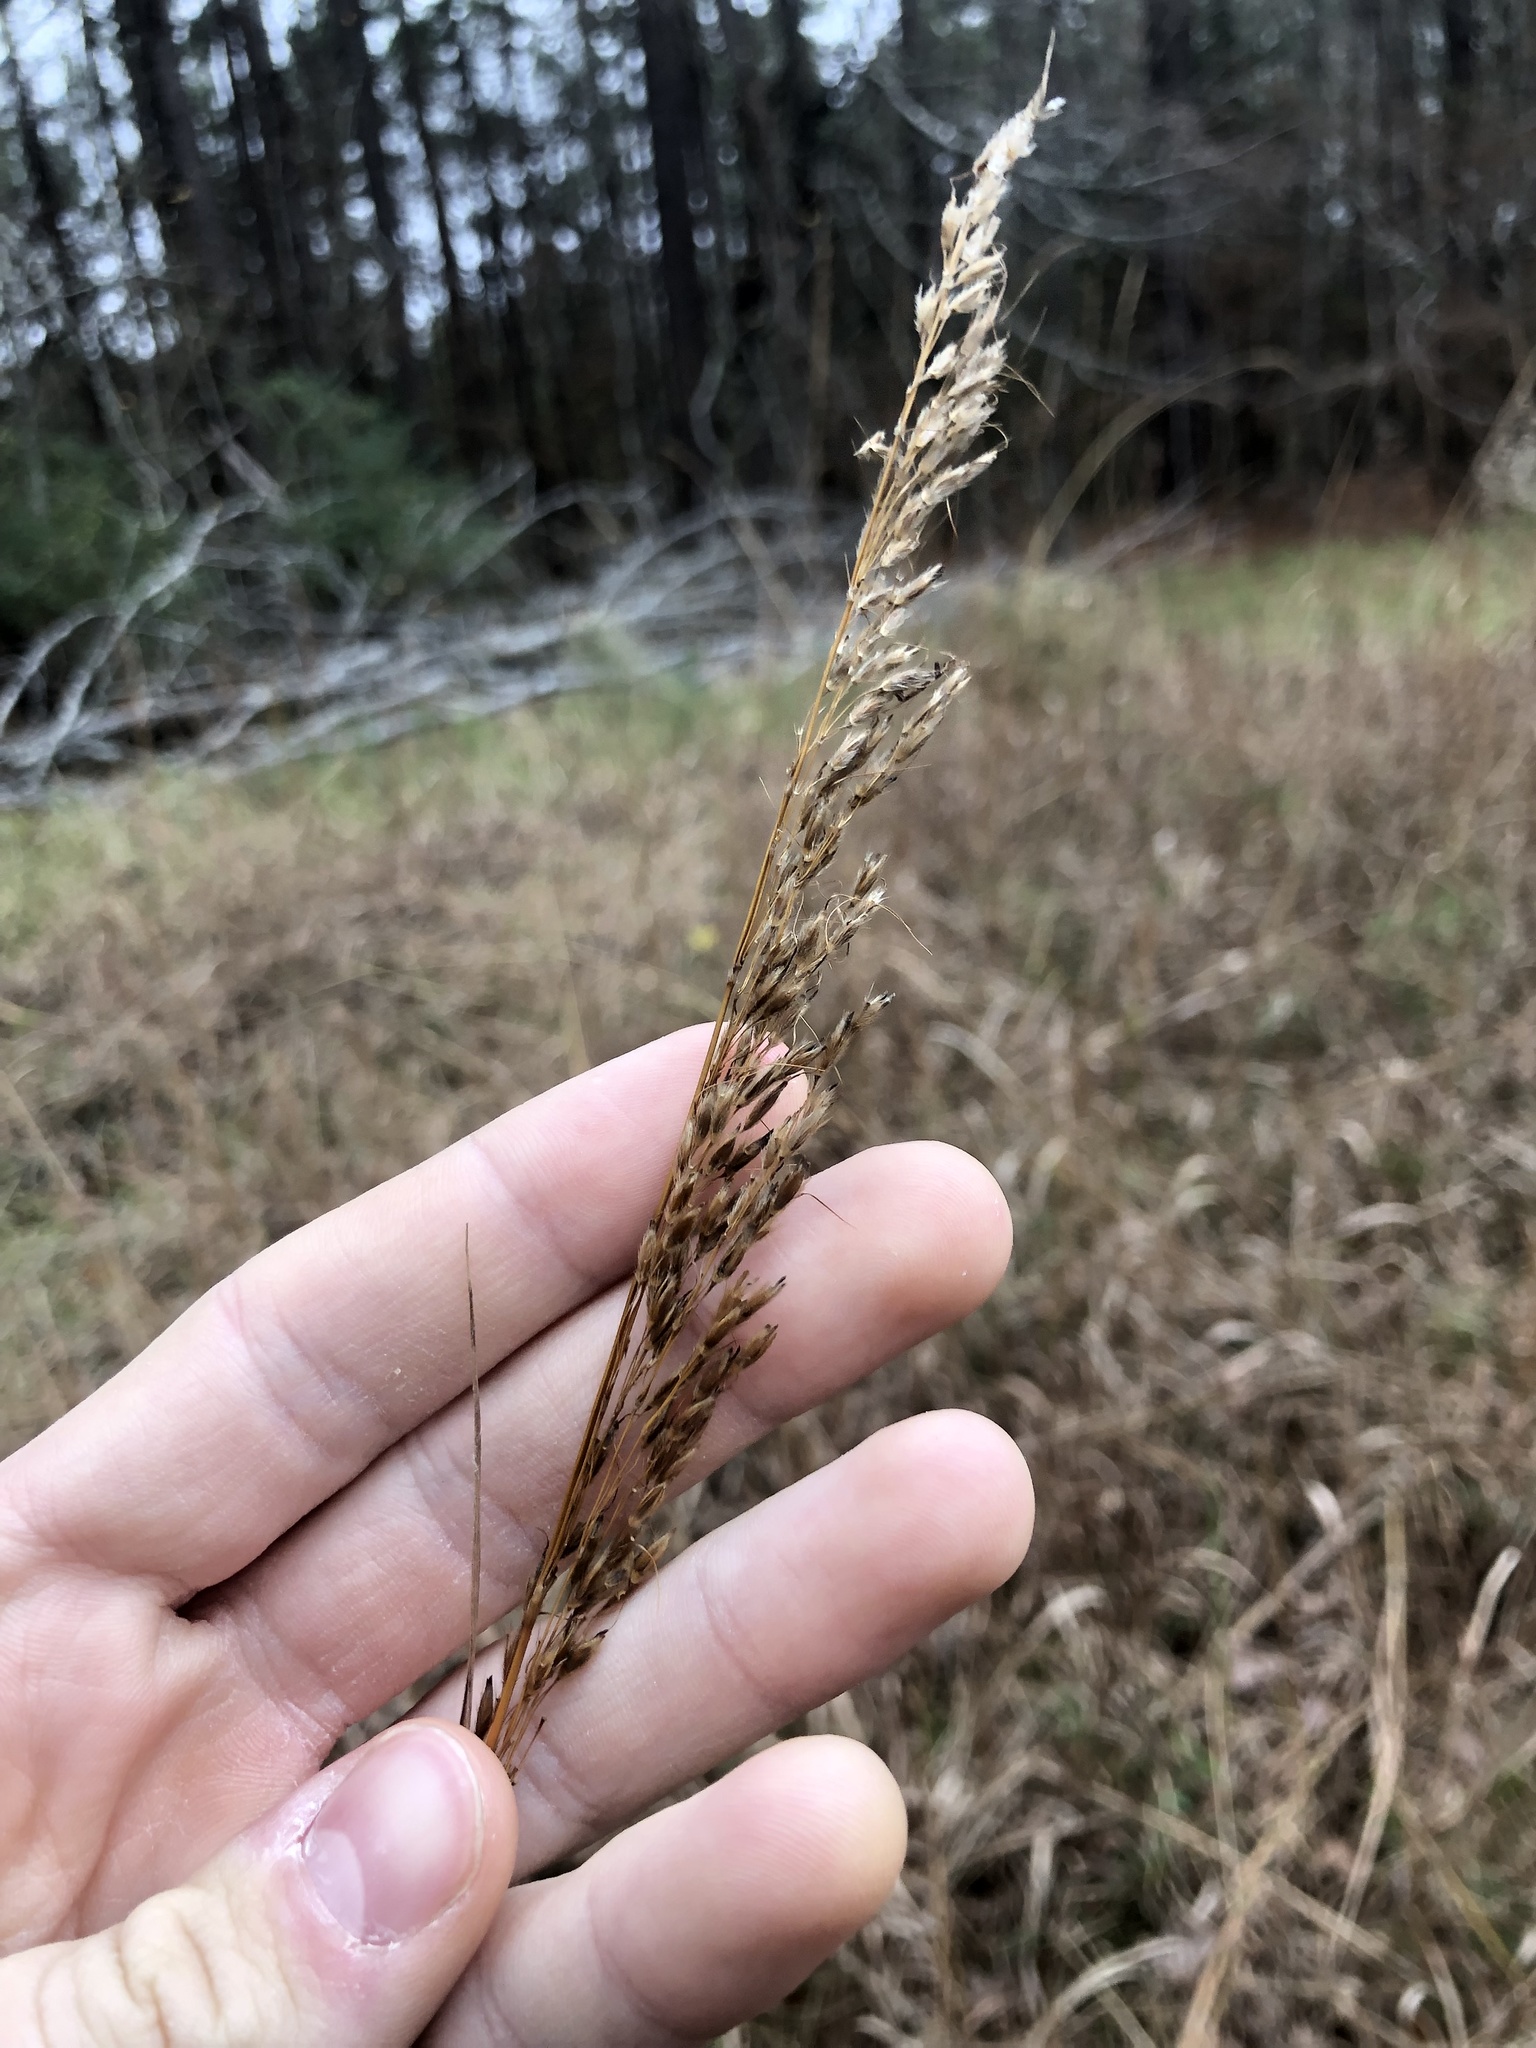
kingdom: Plantae
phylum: Tracheophyta
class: Liliopsida
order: Poales
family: Poaceae
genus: Sorghastrum
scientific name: Sorghastrum nutans
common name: Indian grass
